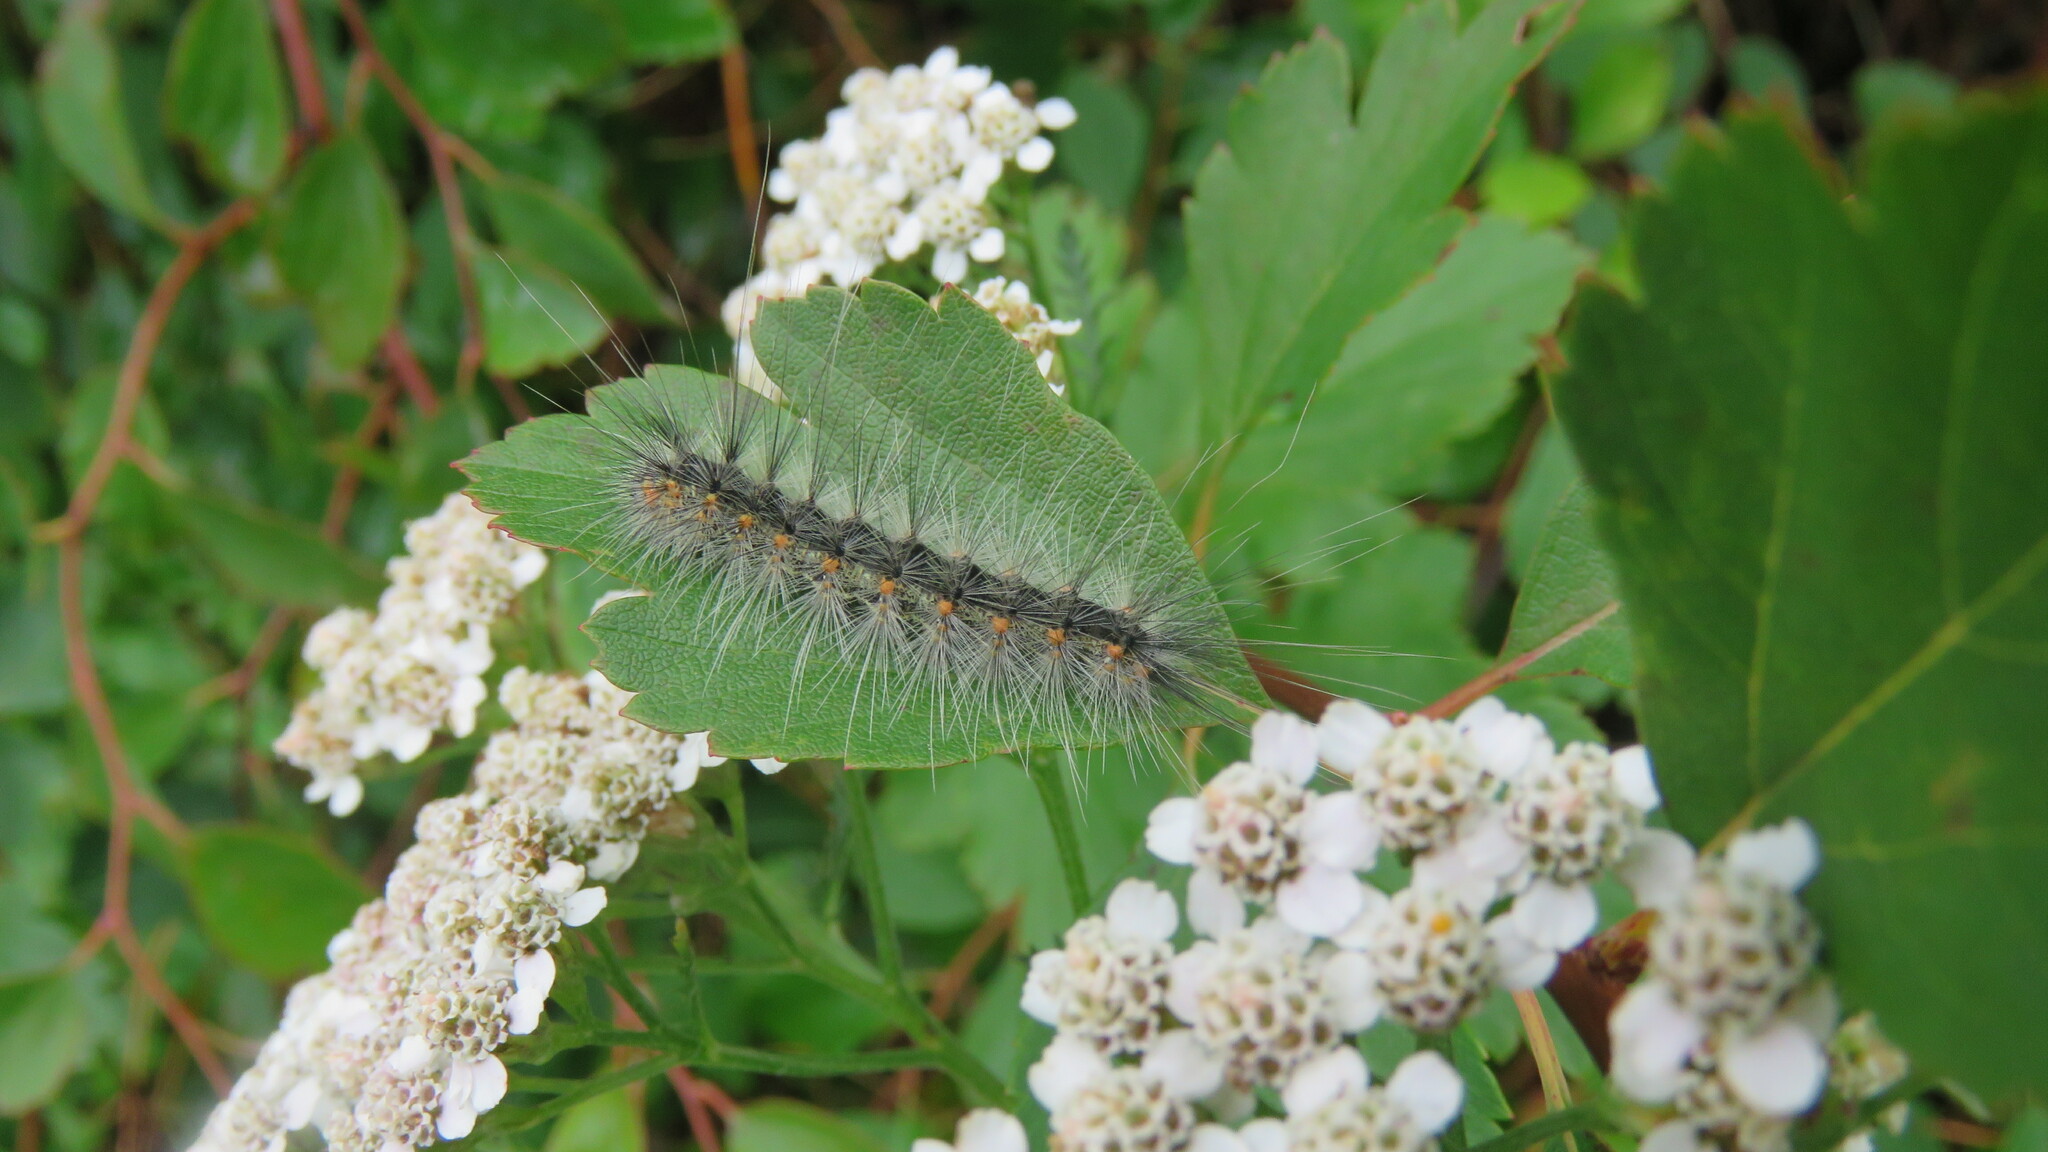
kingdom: Animalia
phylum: Arthropoda
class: Insecta
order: Lepidoptera
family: Erebidae
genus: Hyphantria
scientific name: Hyphantria cunea
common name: American white moth
